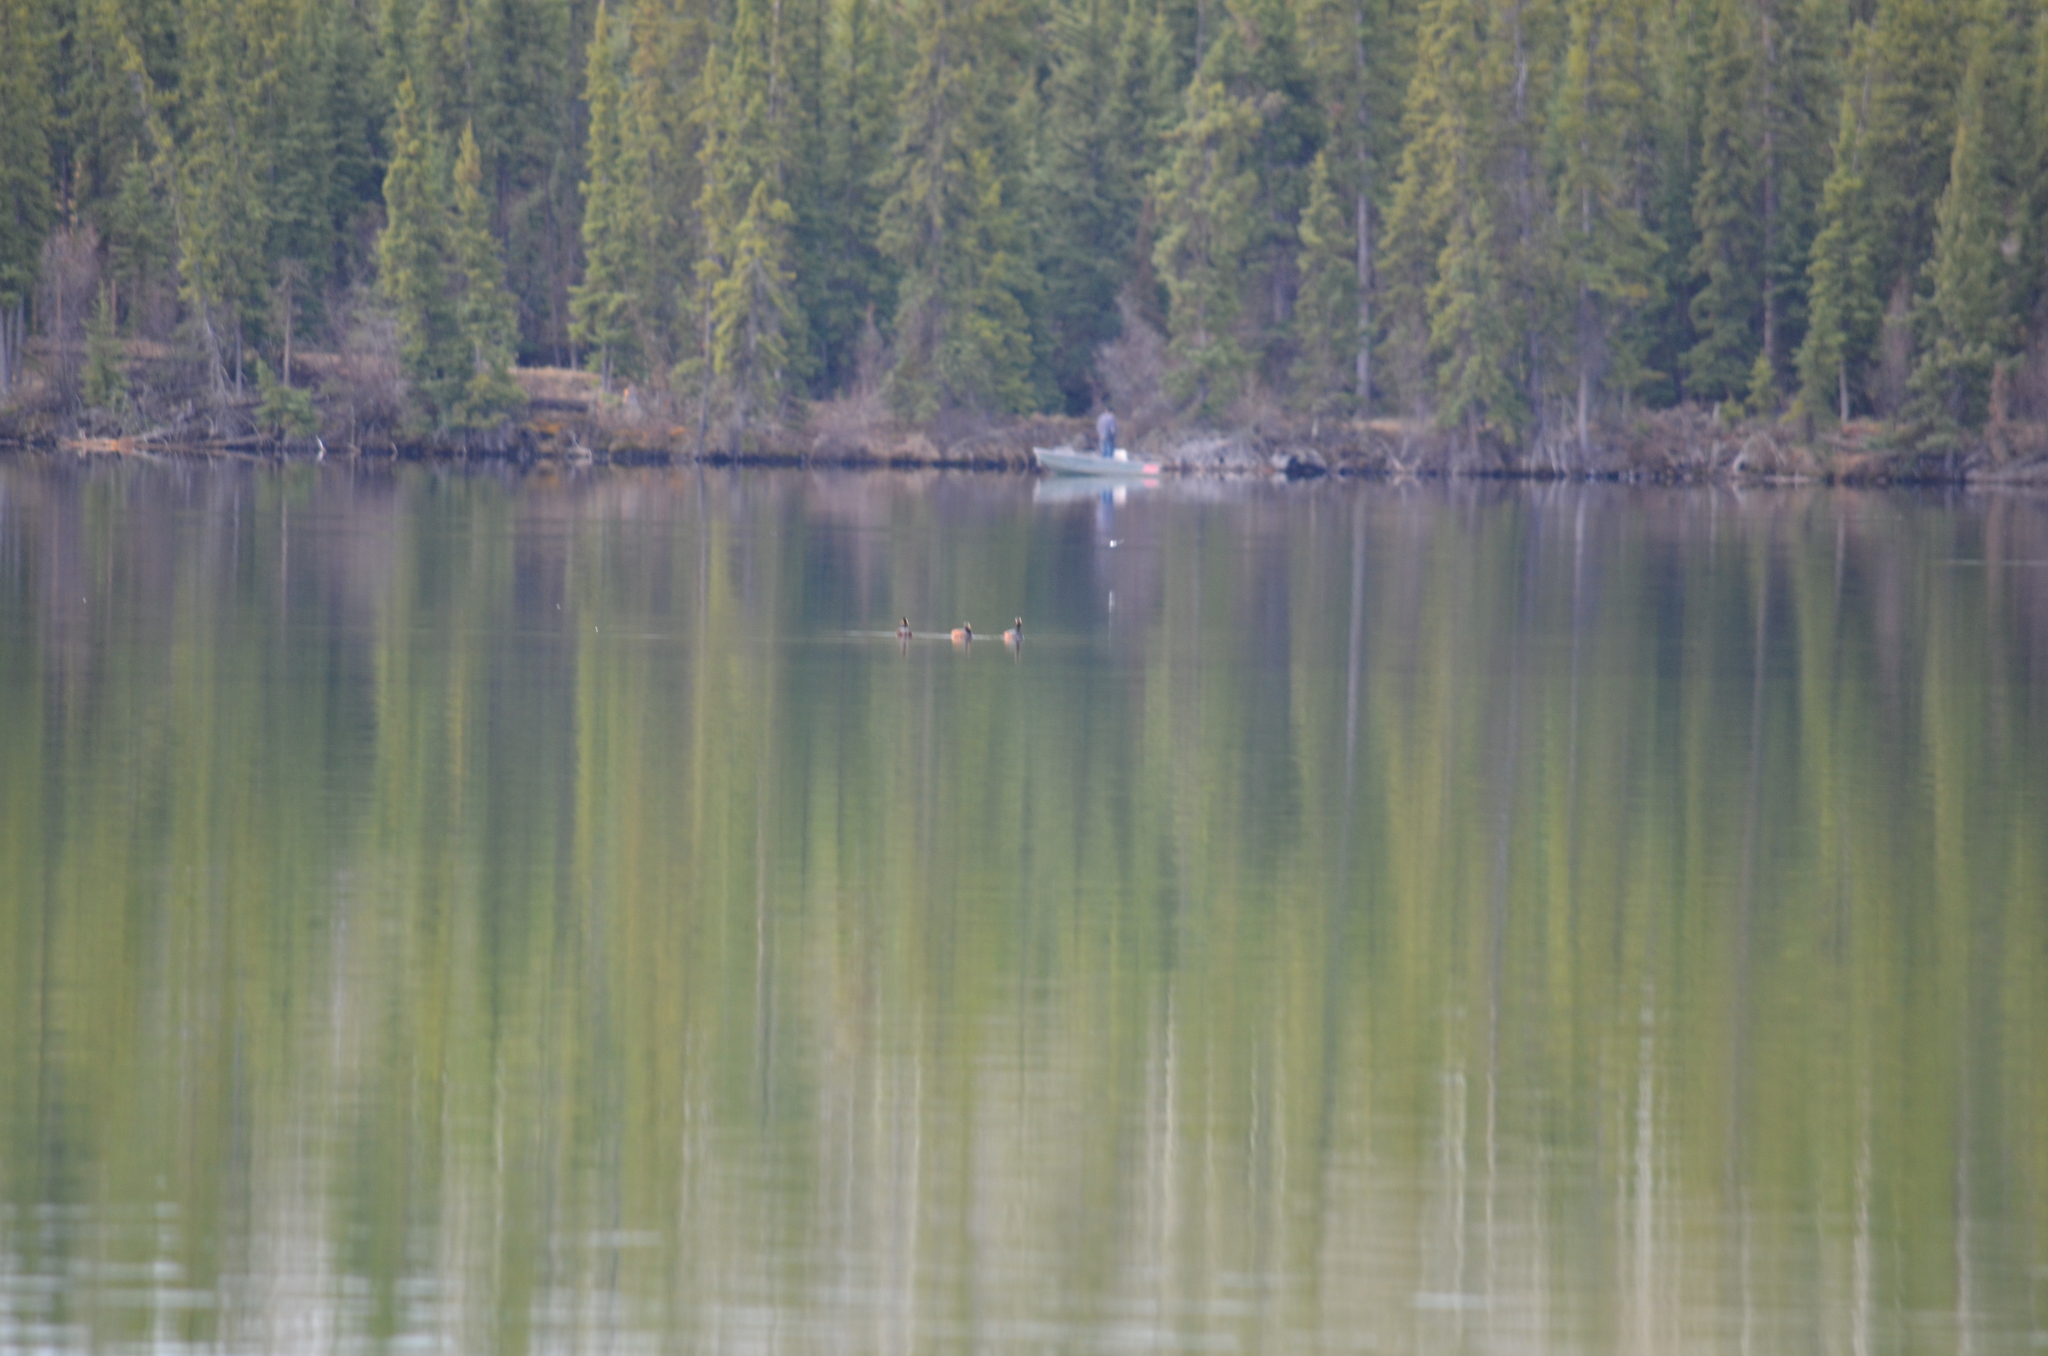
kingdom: Animalia
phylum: Chordata
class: Aves
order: Podicipediformes
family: Podicipedidae
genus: Podiceps
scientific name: Podiceps nigricollis
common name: Black-necked grebe
